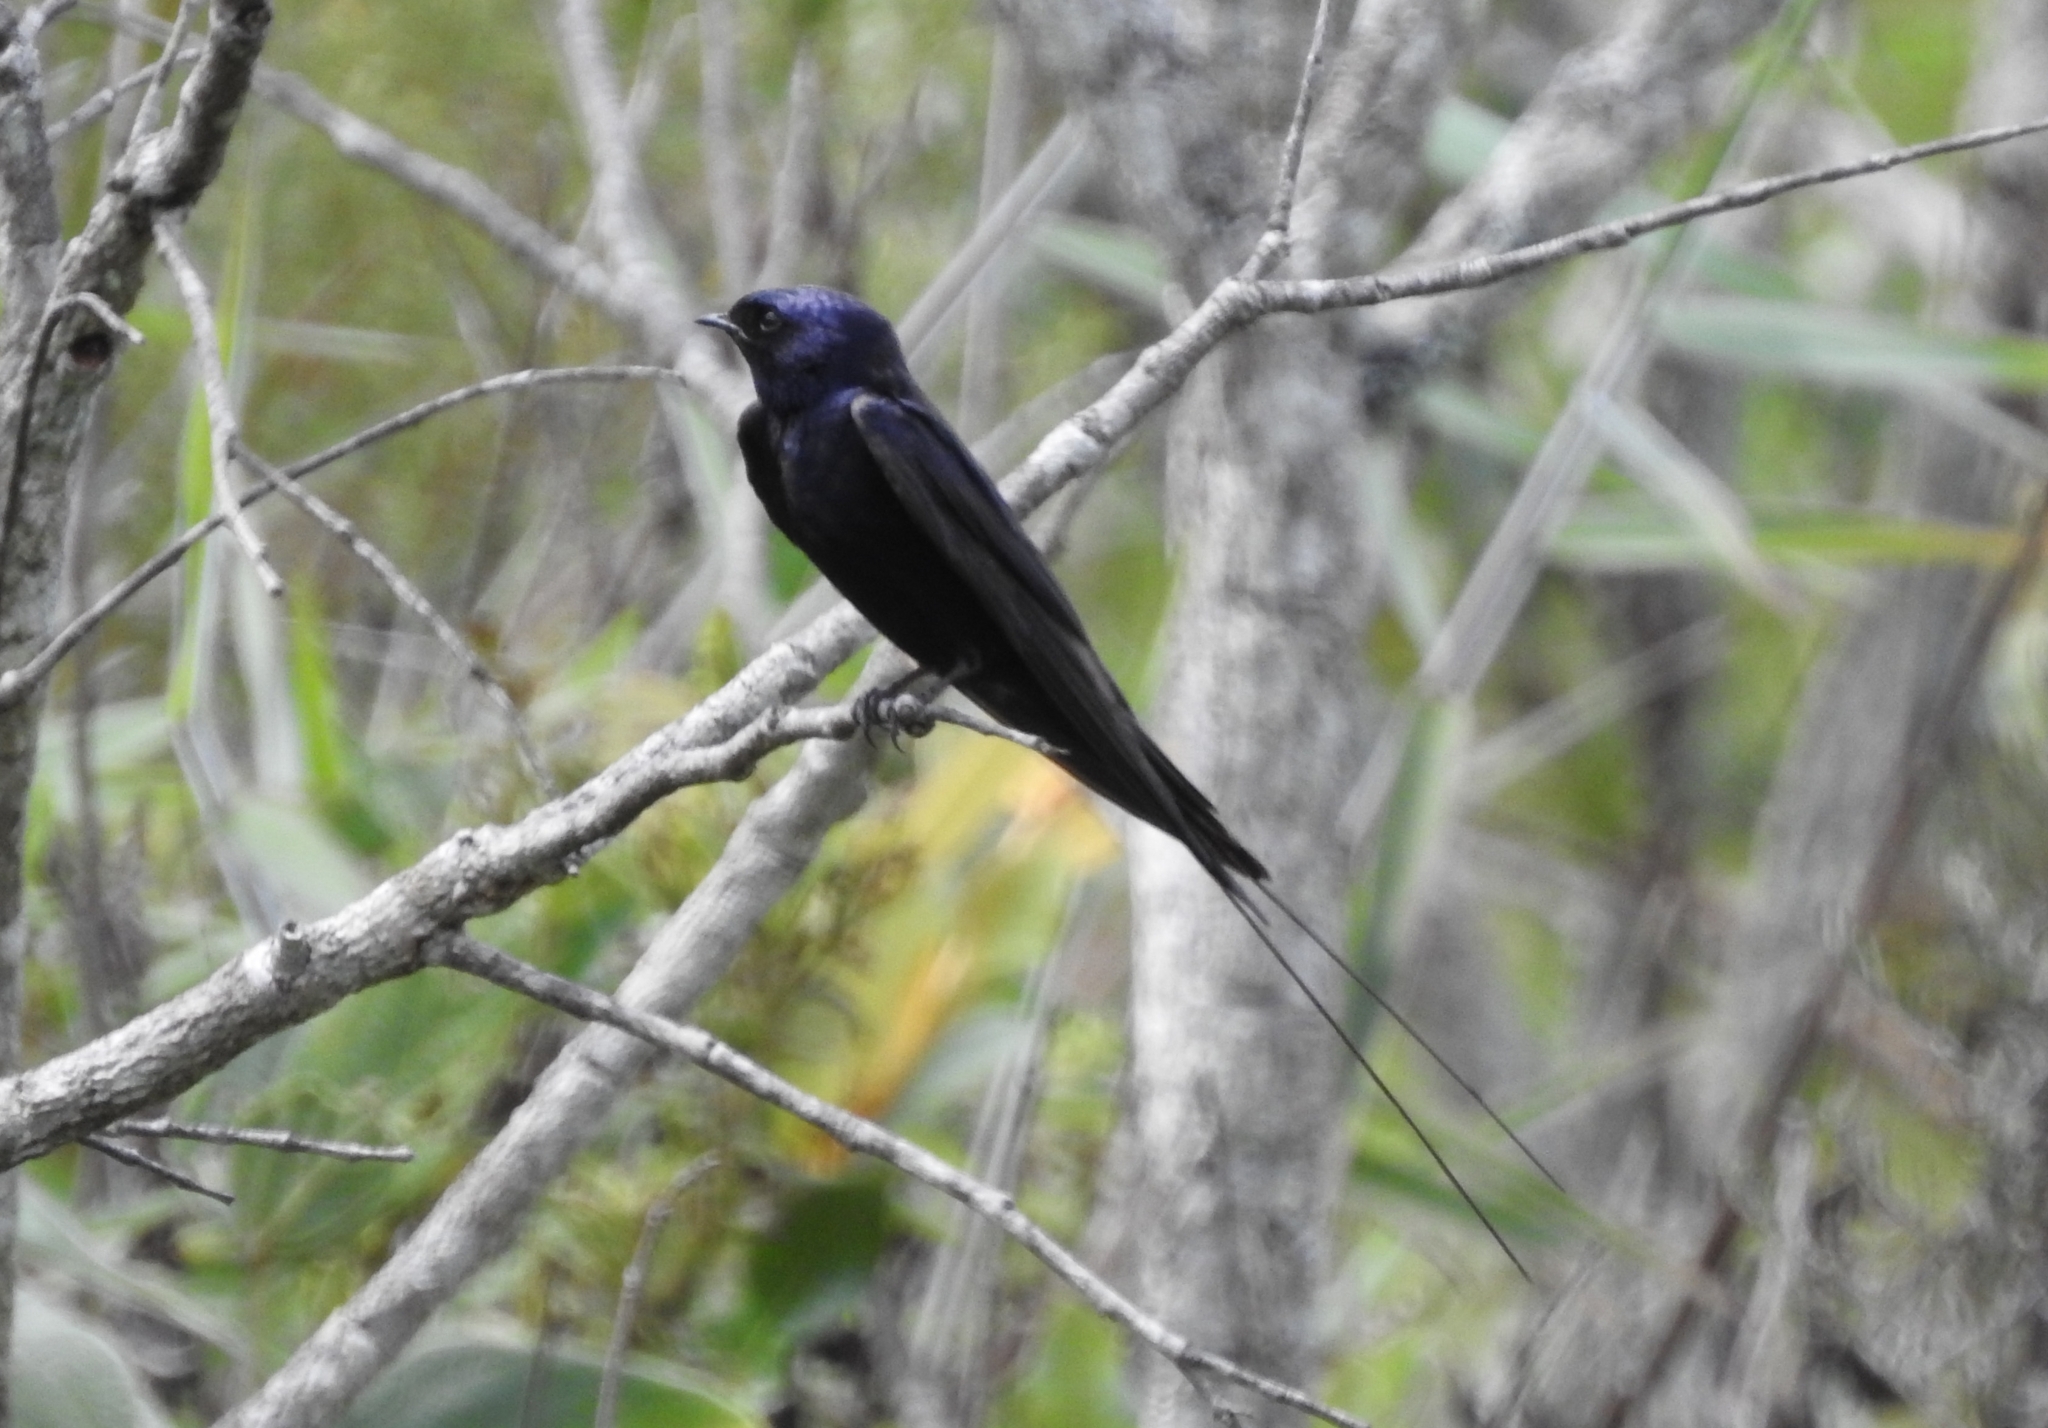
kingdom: Animalia
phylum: Chordata
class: Aves
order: Passeriformes
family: Hirundinidae
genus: Hirundo
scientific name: Hirundo atrocaerulea
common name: Blue swallow
